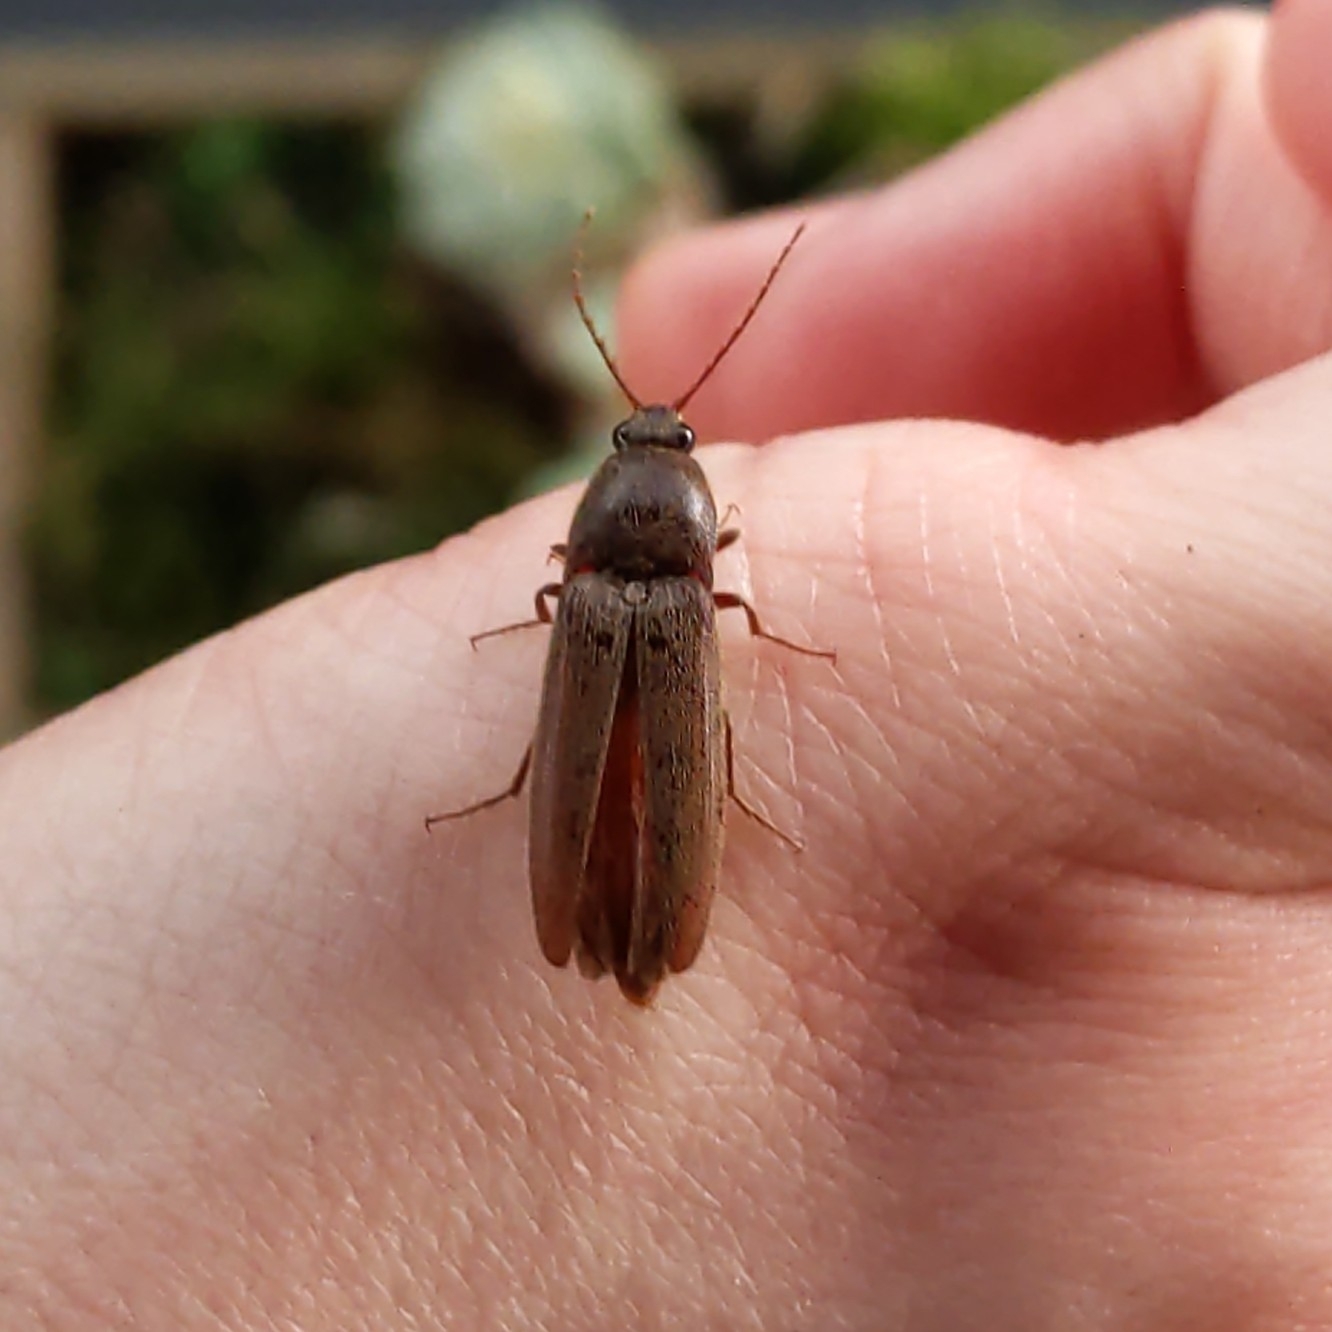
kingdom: Animalia
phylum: Arthropoda
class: Insecta
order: Coleoptera
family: Elateridae
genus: Melanotus
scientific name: Melanotus
